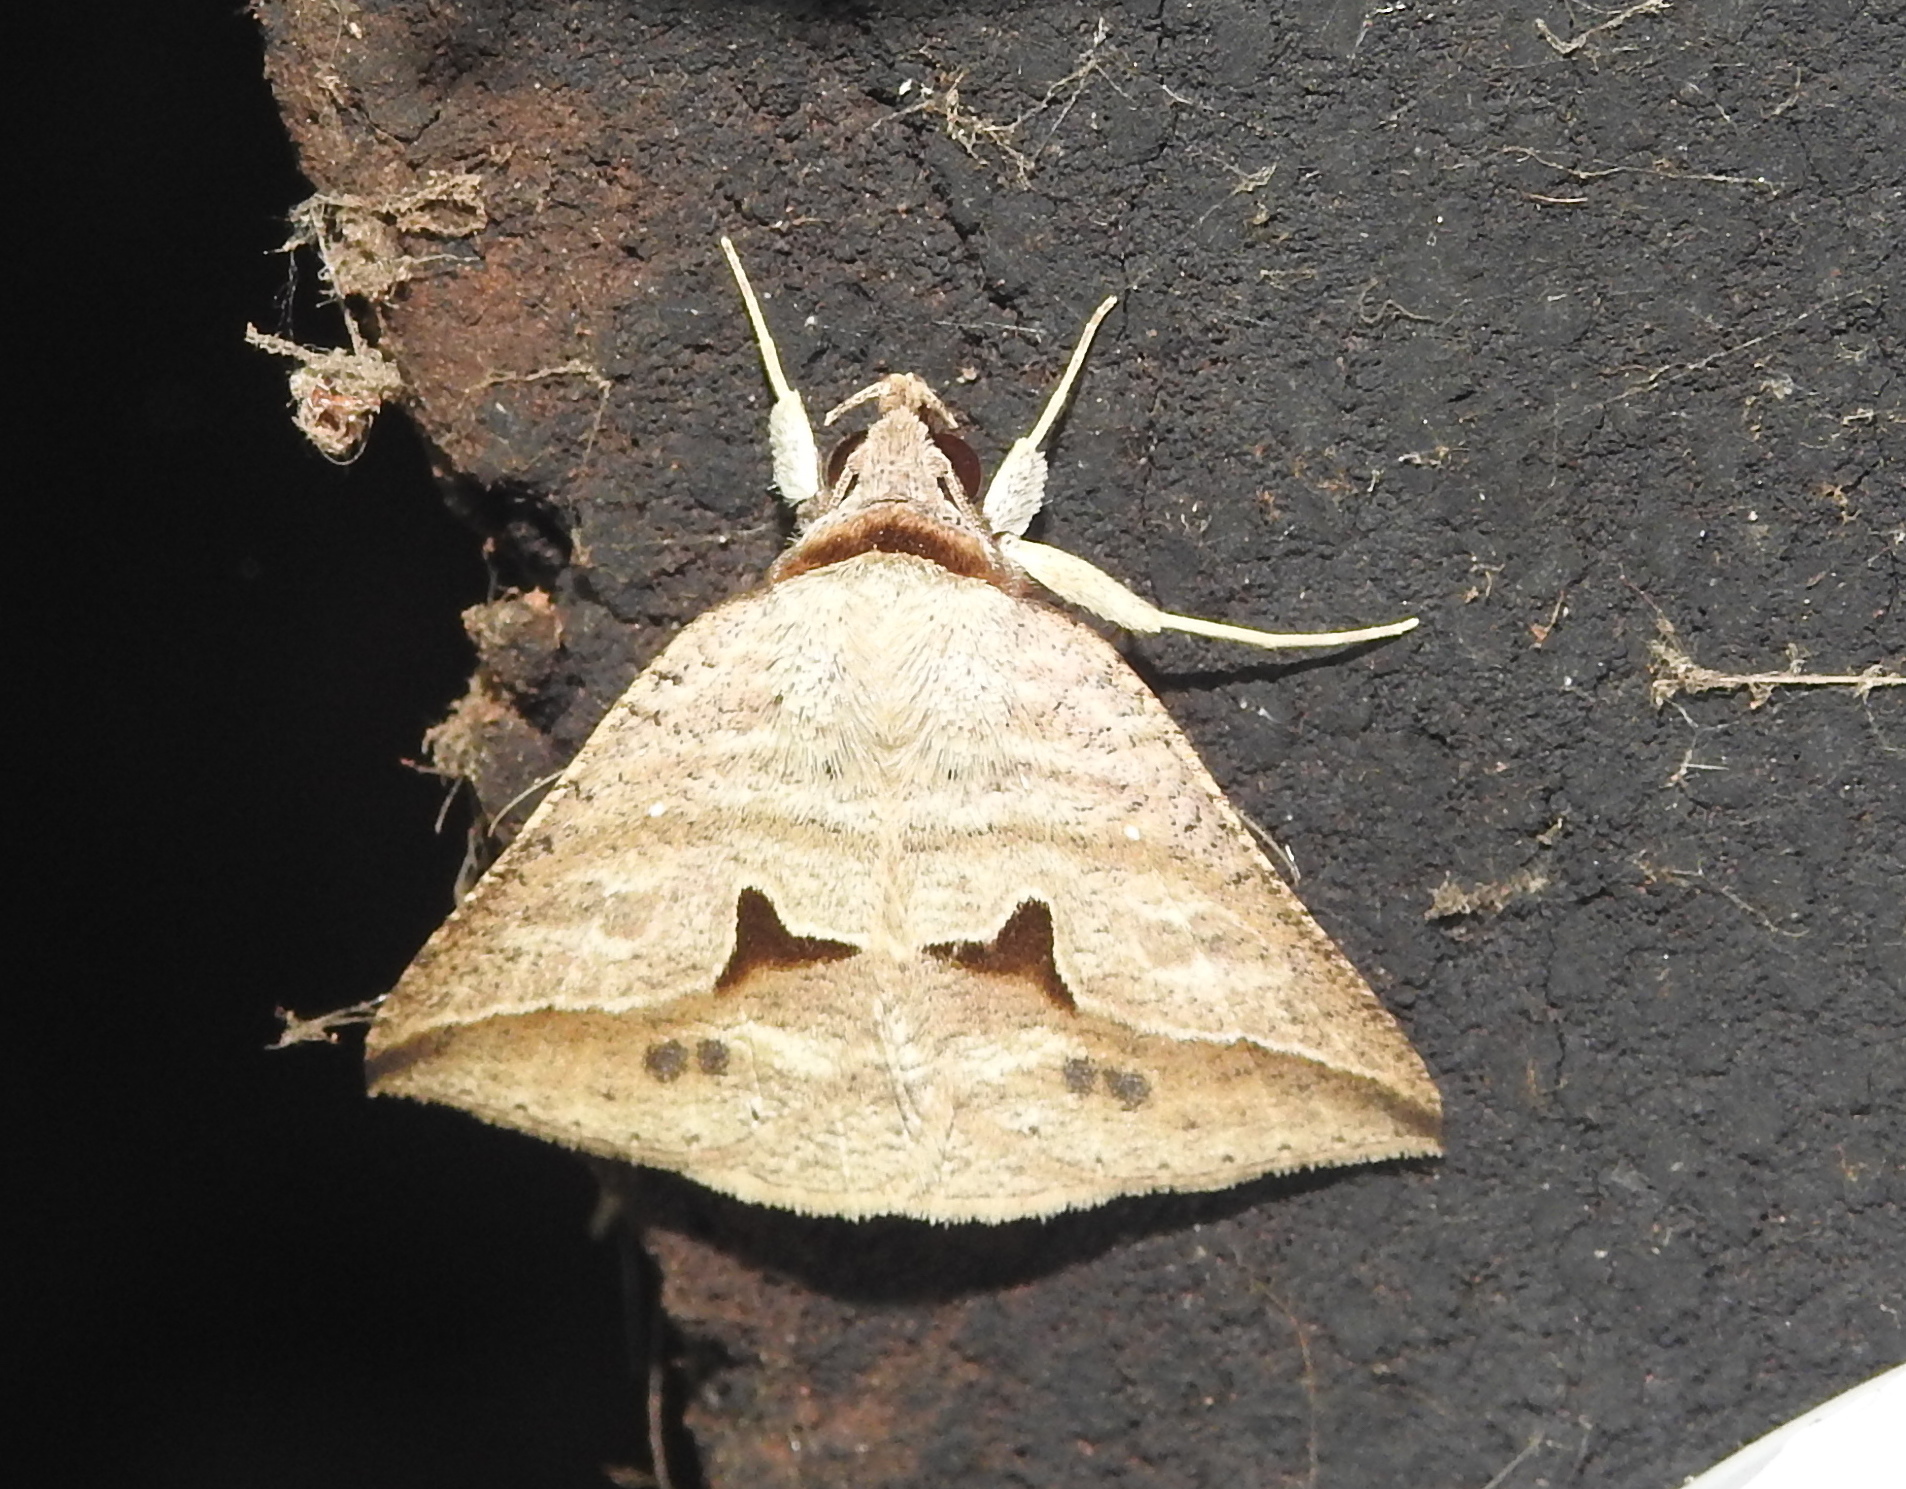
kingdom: Animalia
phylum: Arthropoda
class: Insecta
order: Lepidoptera
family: Erebidae
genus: Dierna
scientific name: Dierna patibulum
